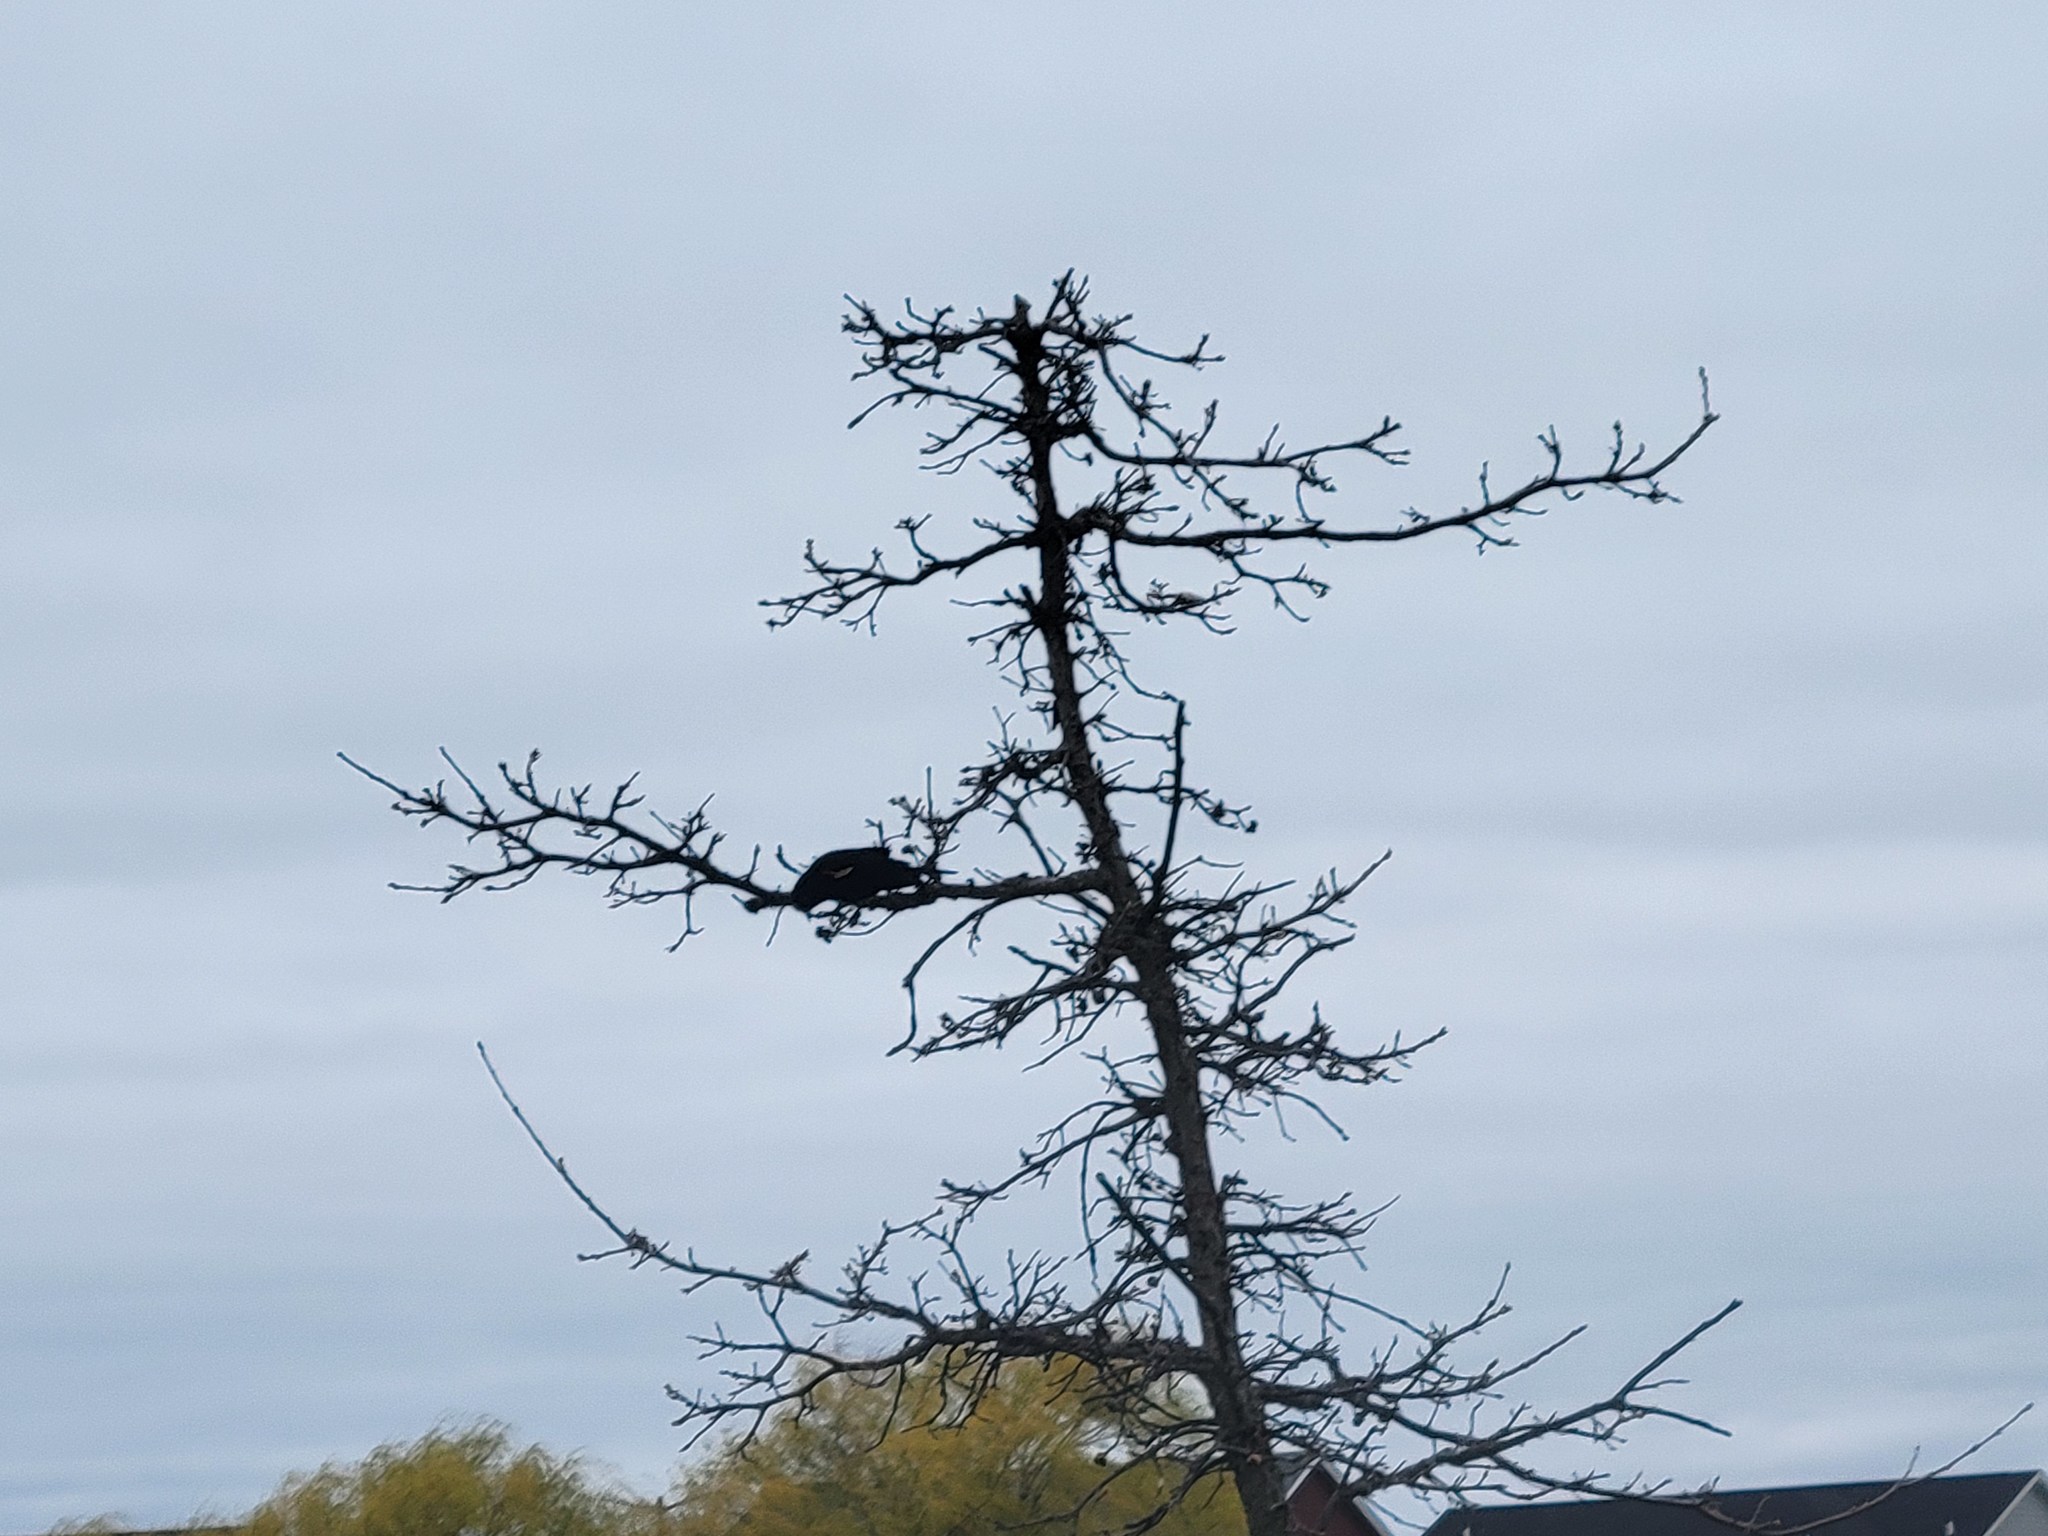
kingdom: Animalia
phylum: Chordata
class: Aves
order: Passeriformes
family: Icteridae
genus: Agelaius
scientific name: Agelaius phoeniceus
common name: Red-winged blackbird
